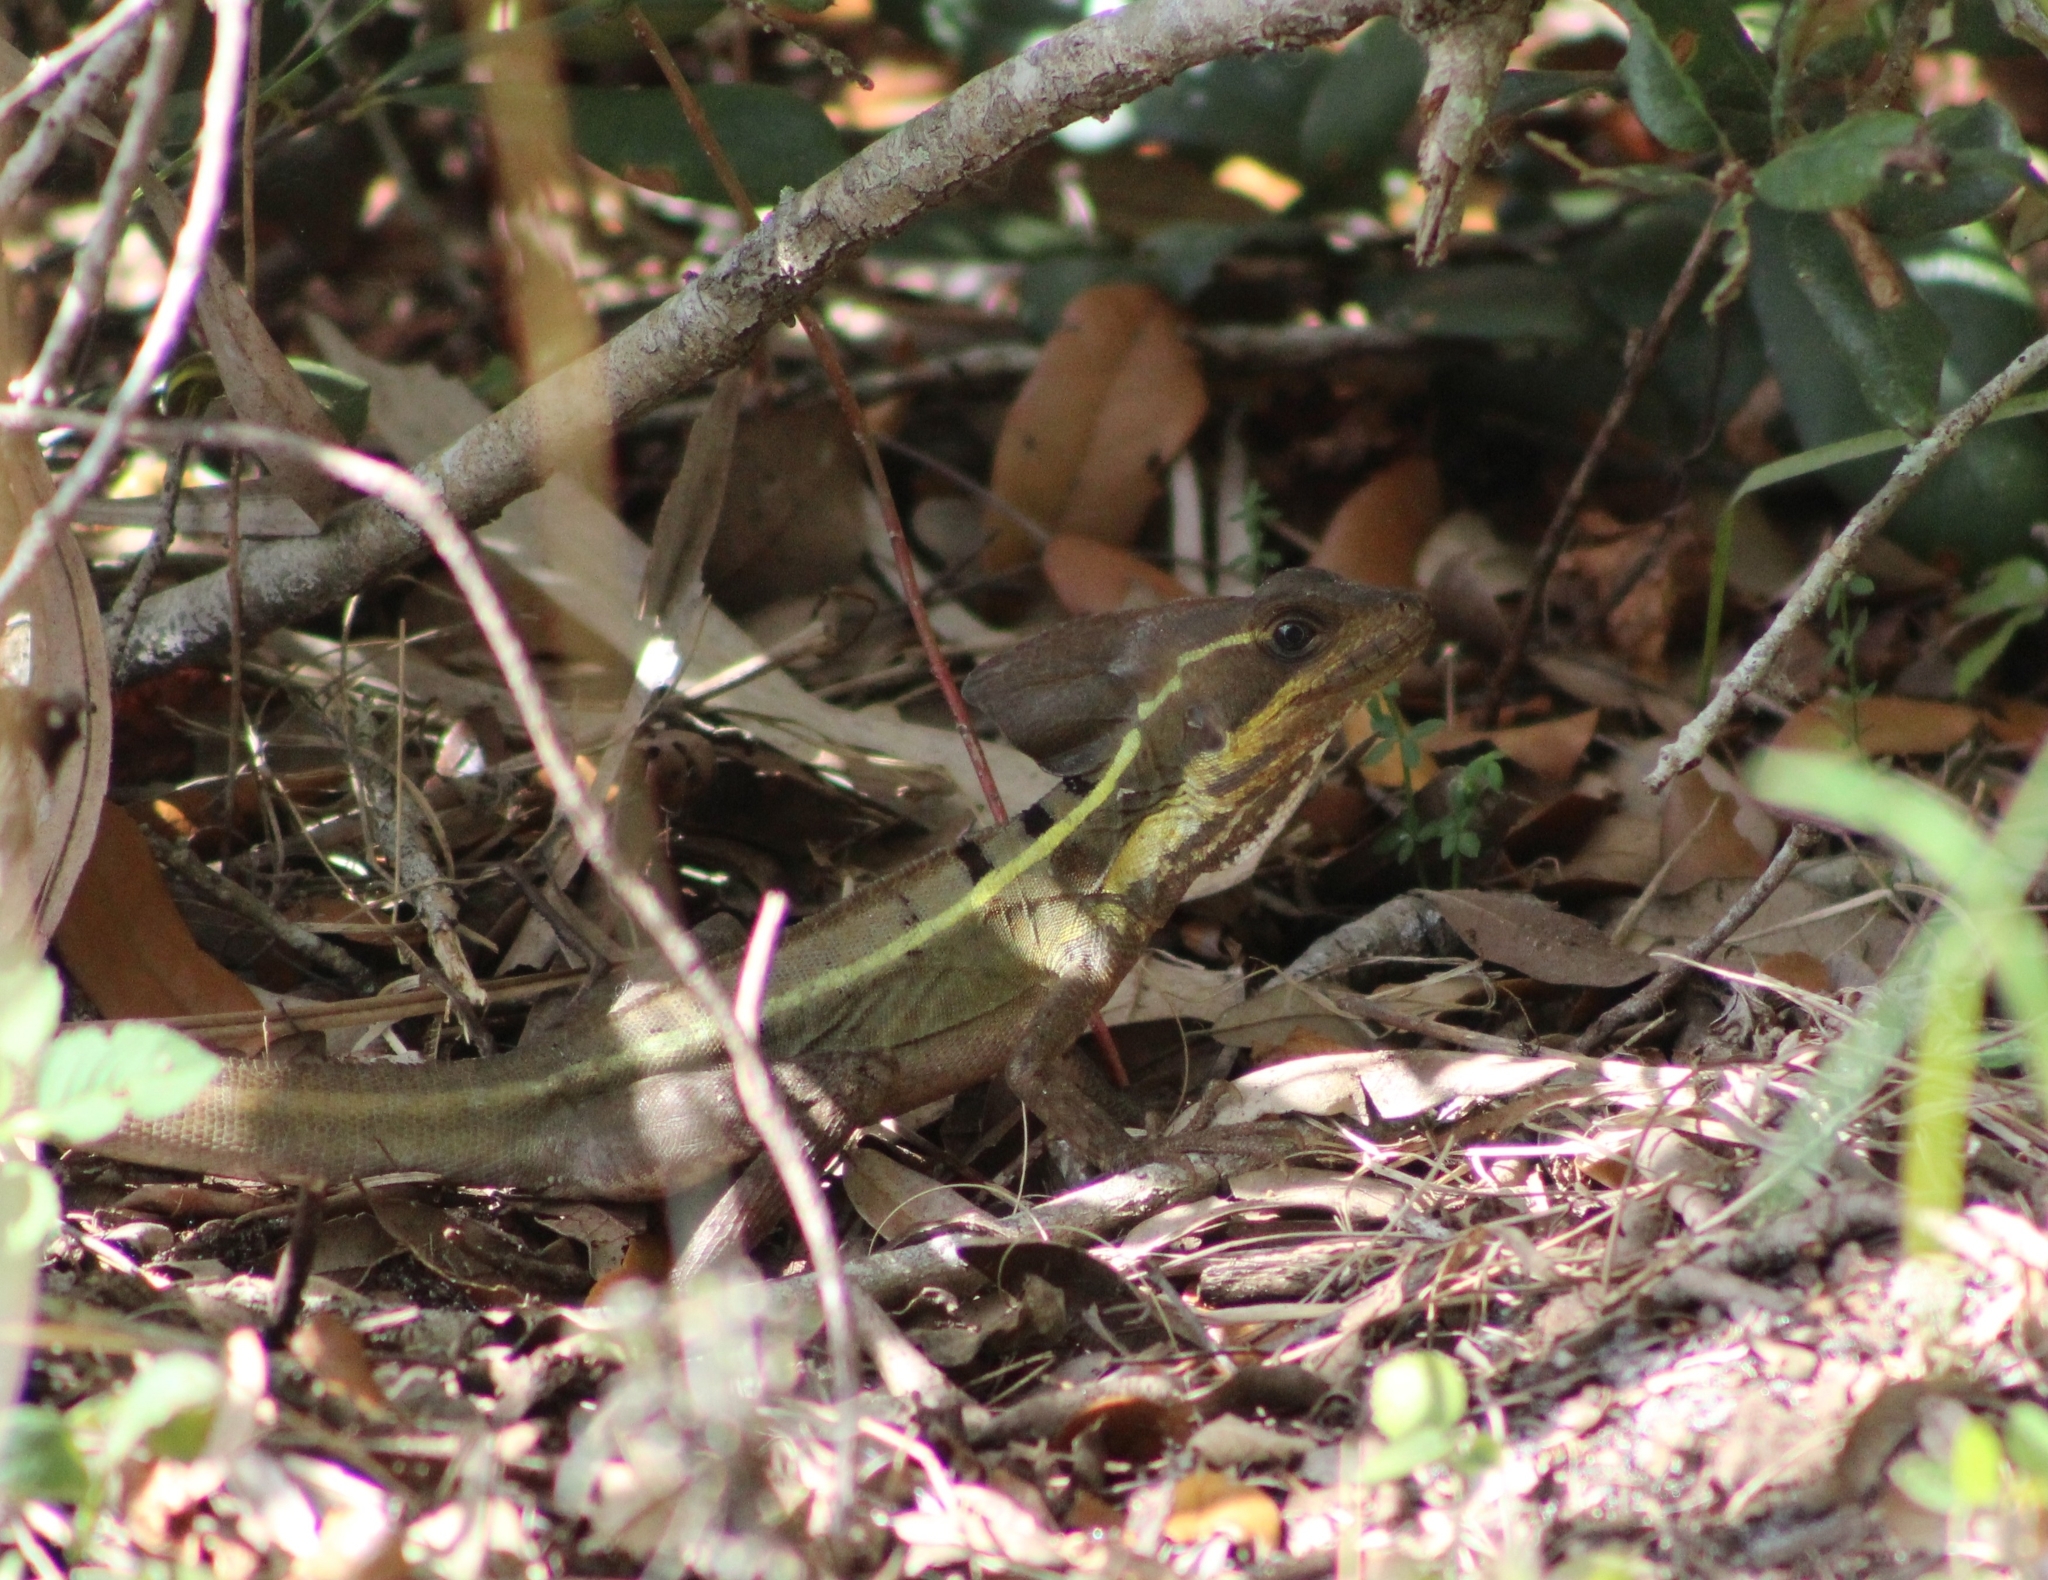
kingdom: Animalia
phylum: Chordata
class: Squamata
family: Corytophanidae
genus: Basiliscus
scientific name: Basiliscus vittatus
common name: Brown basilisk
